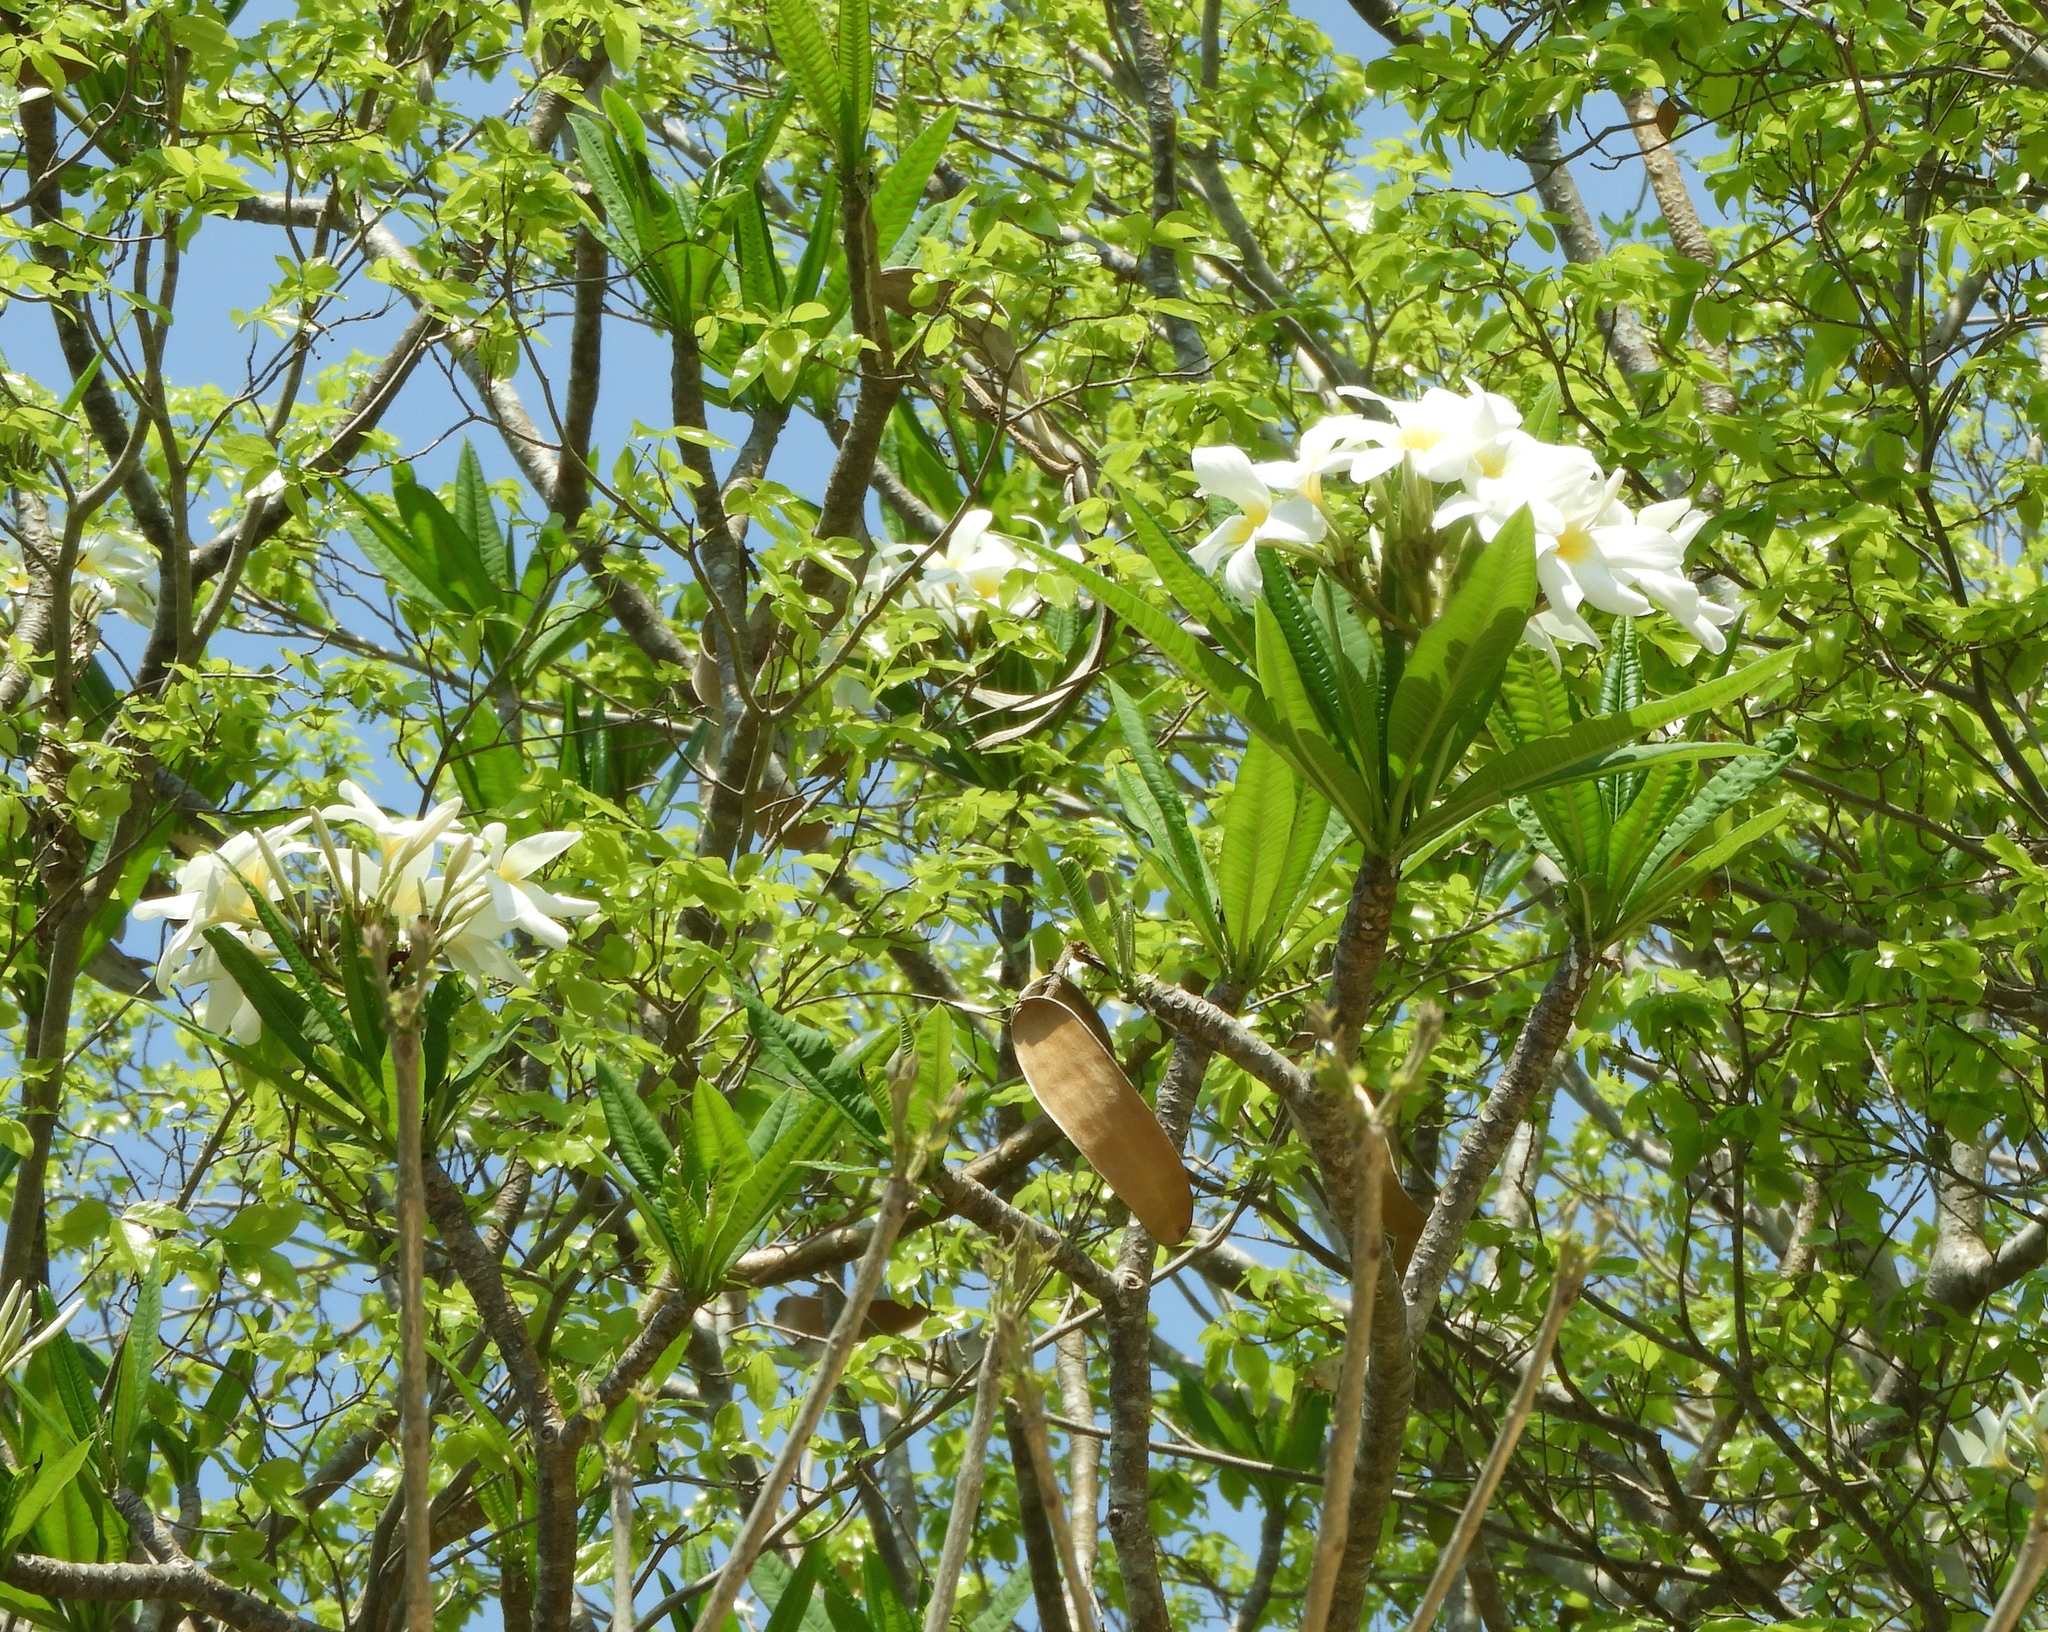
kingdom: Plantae
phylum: Tracheophyta
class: Magnoliopsida
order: Gentianales
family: Apocynaceae
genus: Plumeria
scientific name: Plumeria rubra
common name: Pagoda-tree
